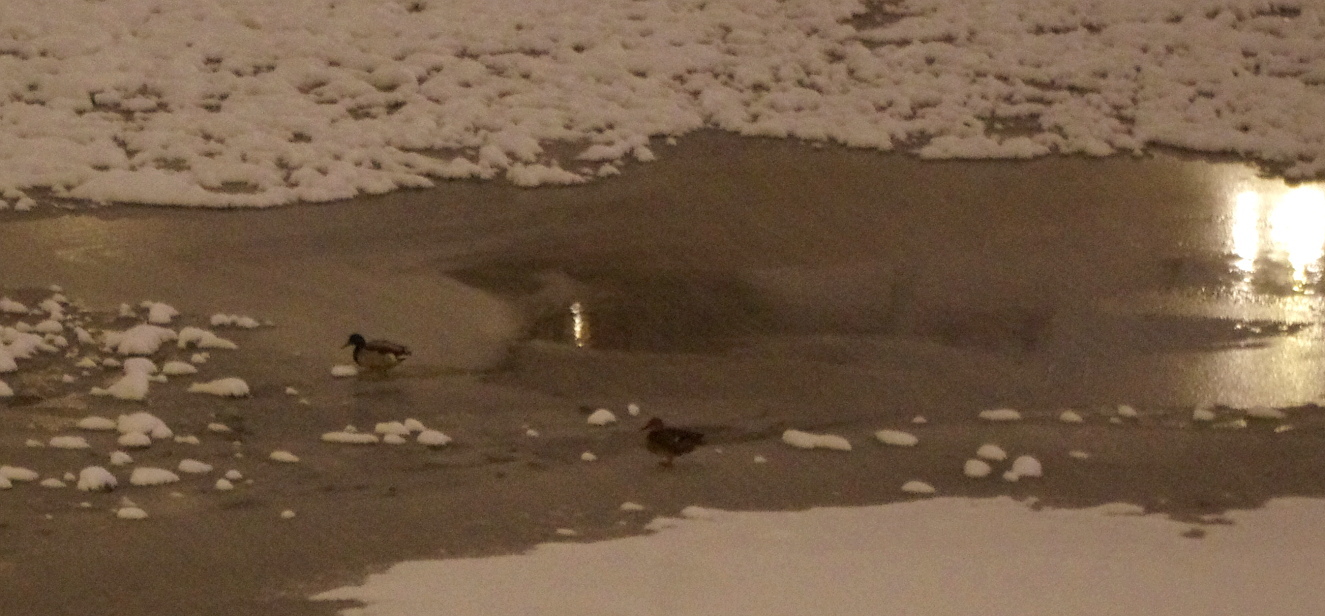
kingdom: Animalia
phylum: Chordata
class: Aves
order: Anseriformes
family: Anatidae
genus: Anas
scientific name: Anas platyrhynchos
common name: Mallard
